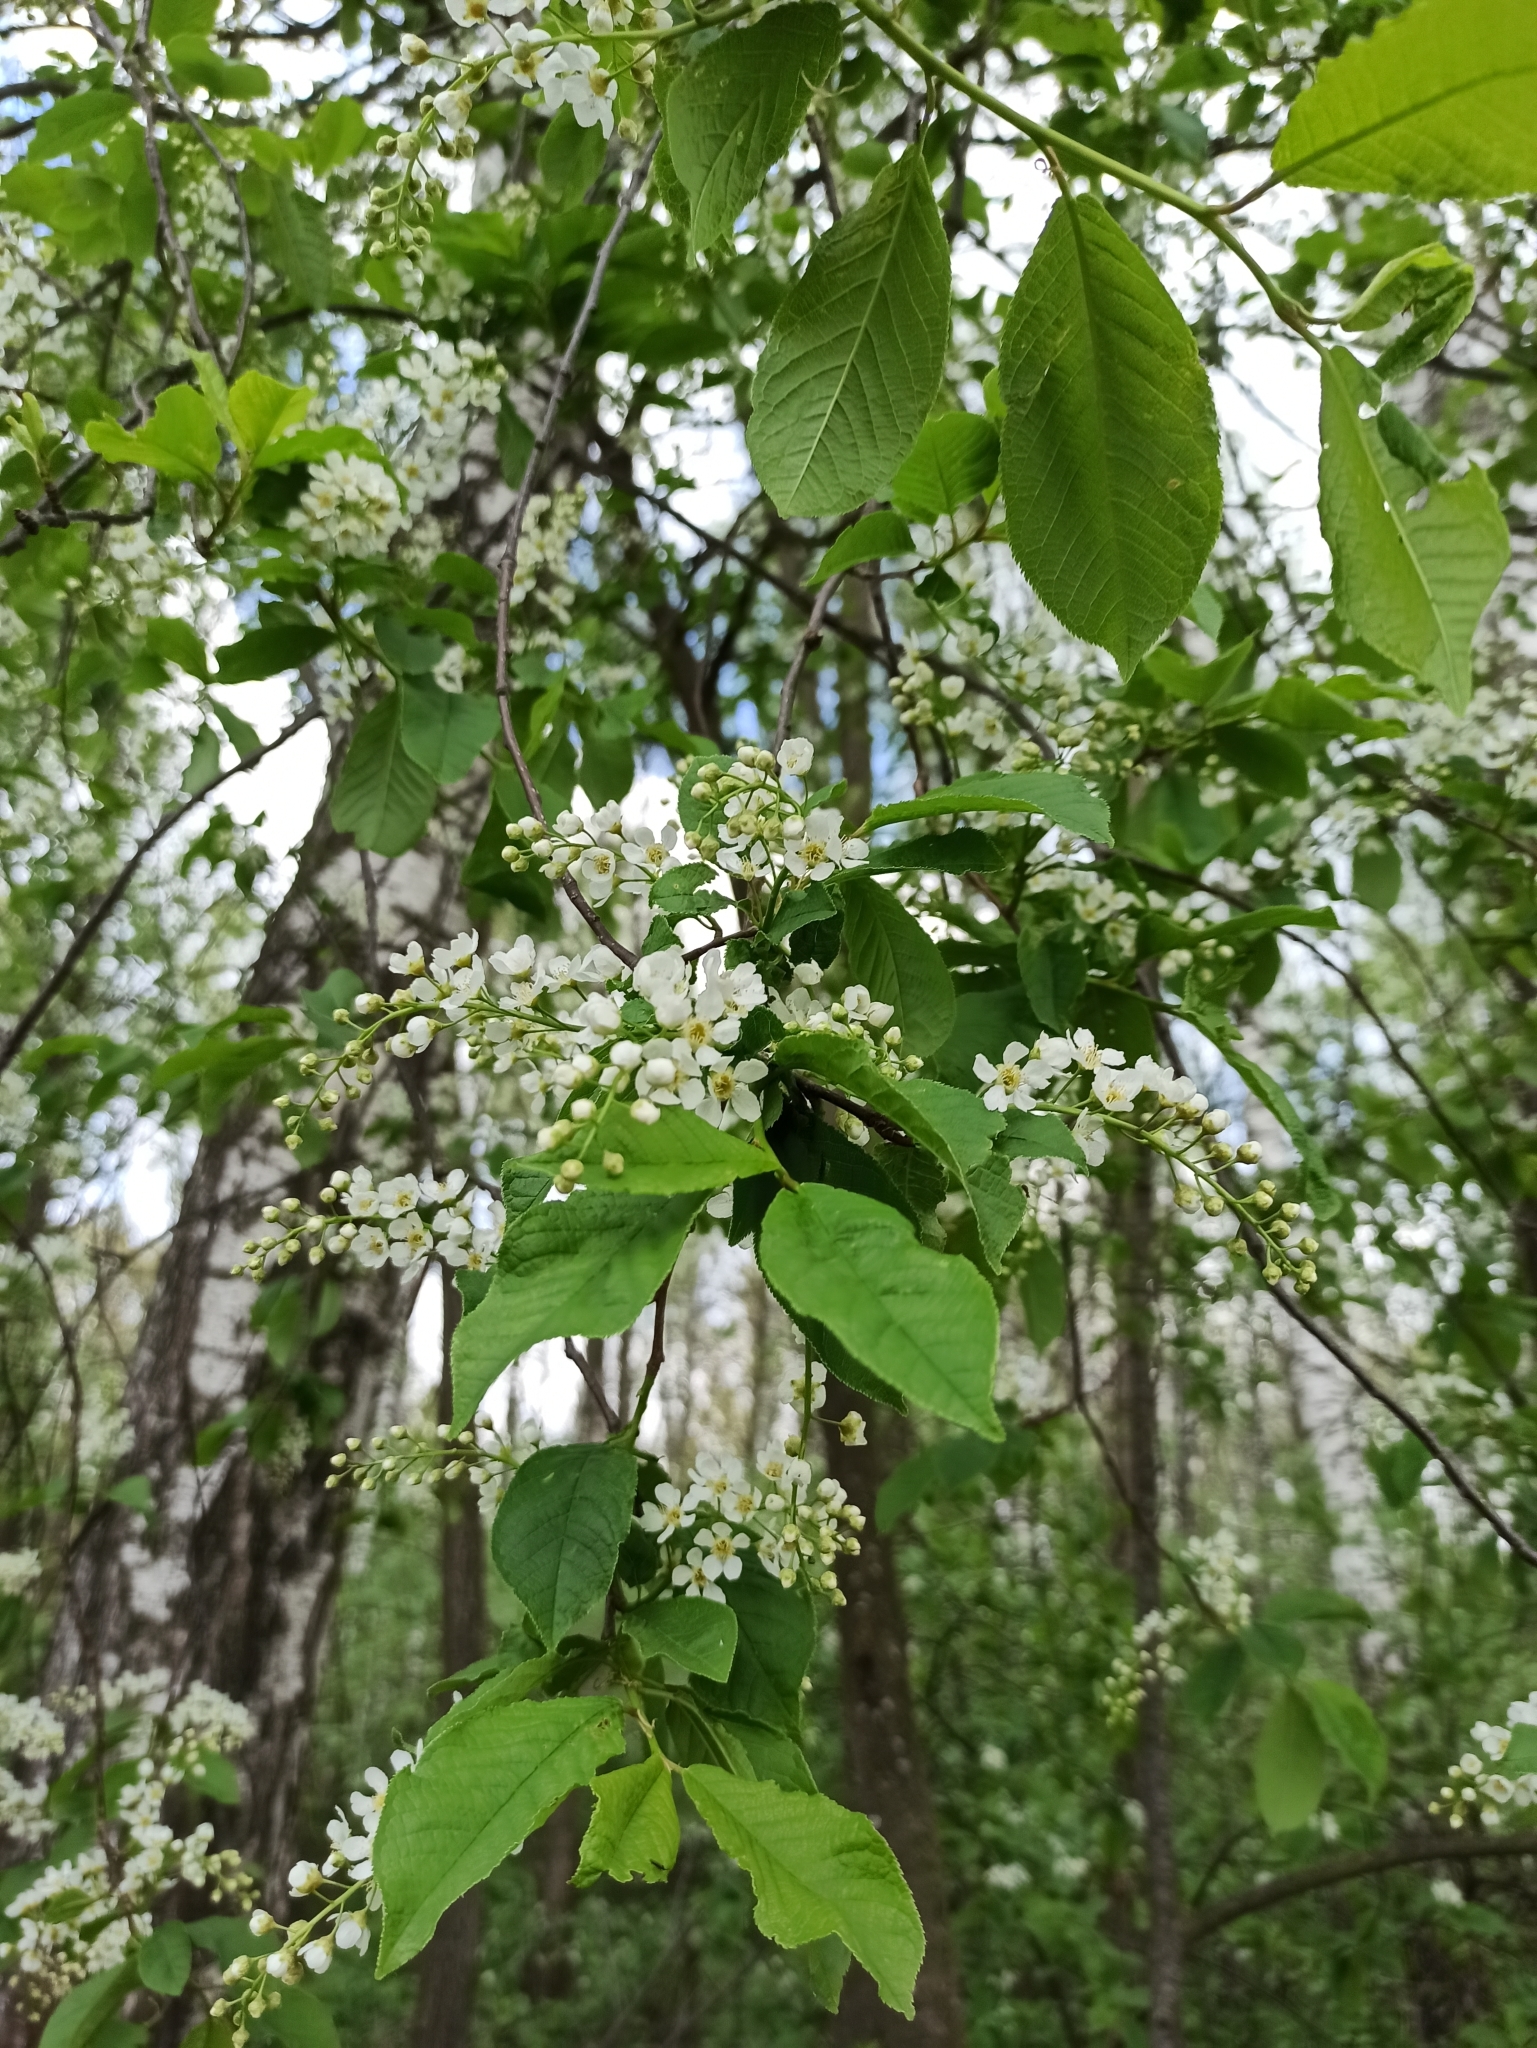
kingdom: Plantae
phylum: Tracheophyta
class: Magnoliopsida
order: Rosales
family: Rosaceae
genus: Prunus
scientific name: Prunus padus
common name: Bird cherry
